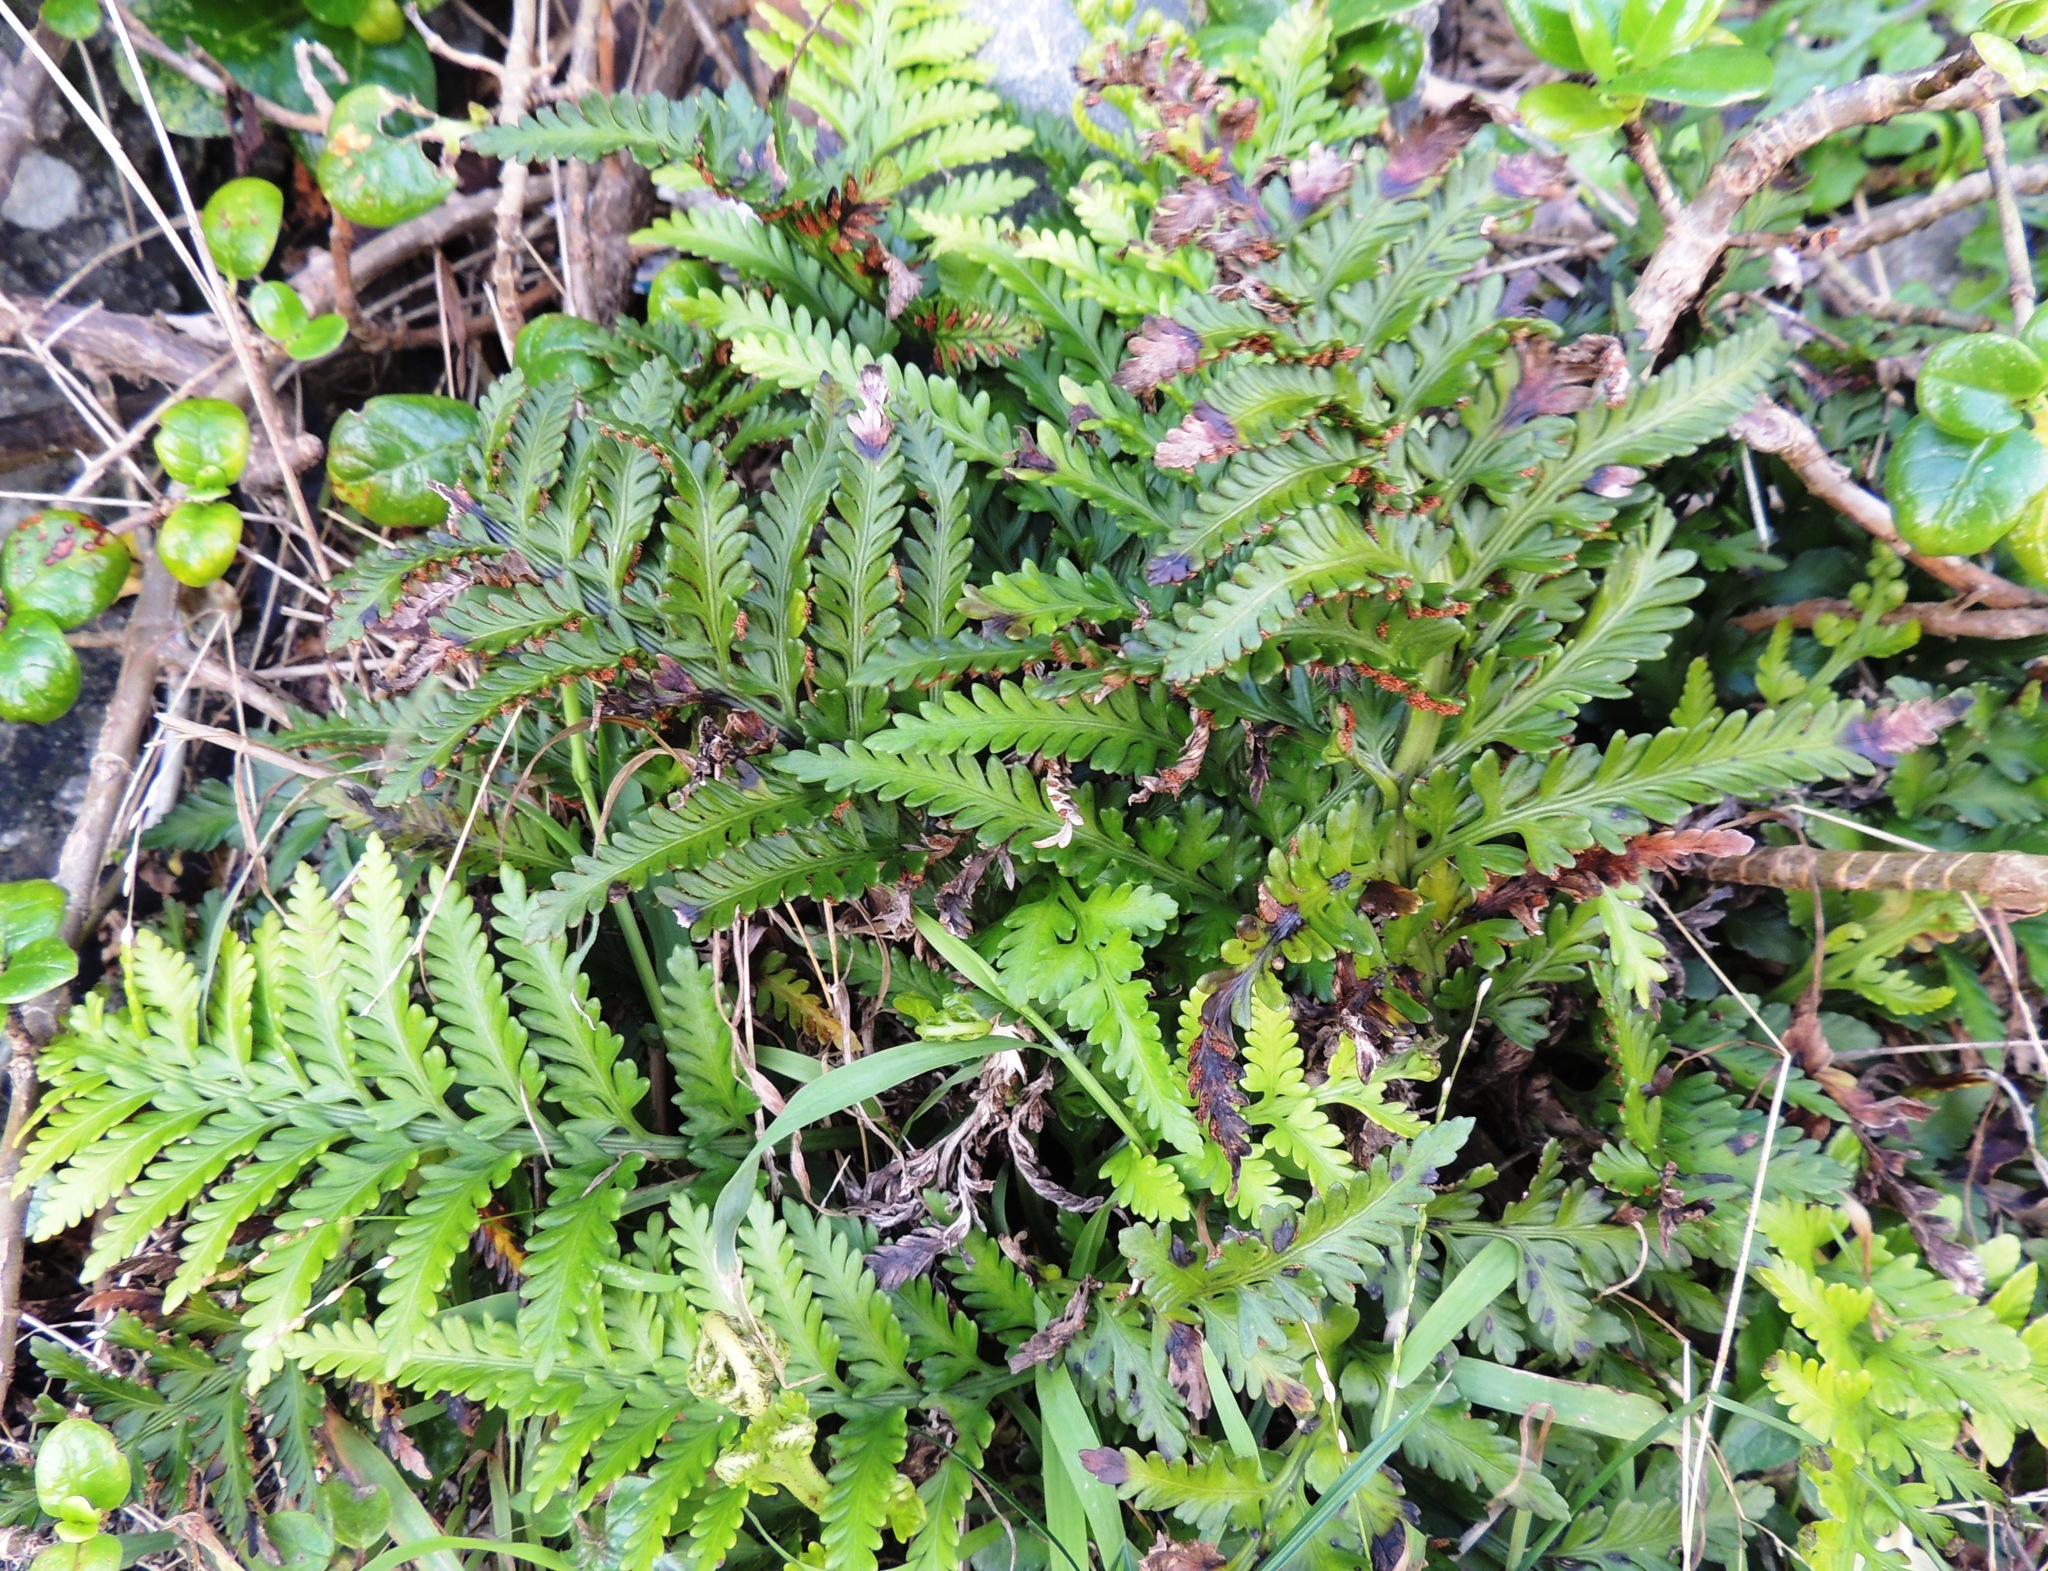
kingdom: Plantae
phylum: Tracheophyta
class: Polypodiopsida
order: Polypodiales
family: Aspleniaceae
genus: Asplenium
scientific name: Asplenium appendiculatum
